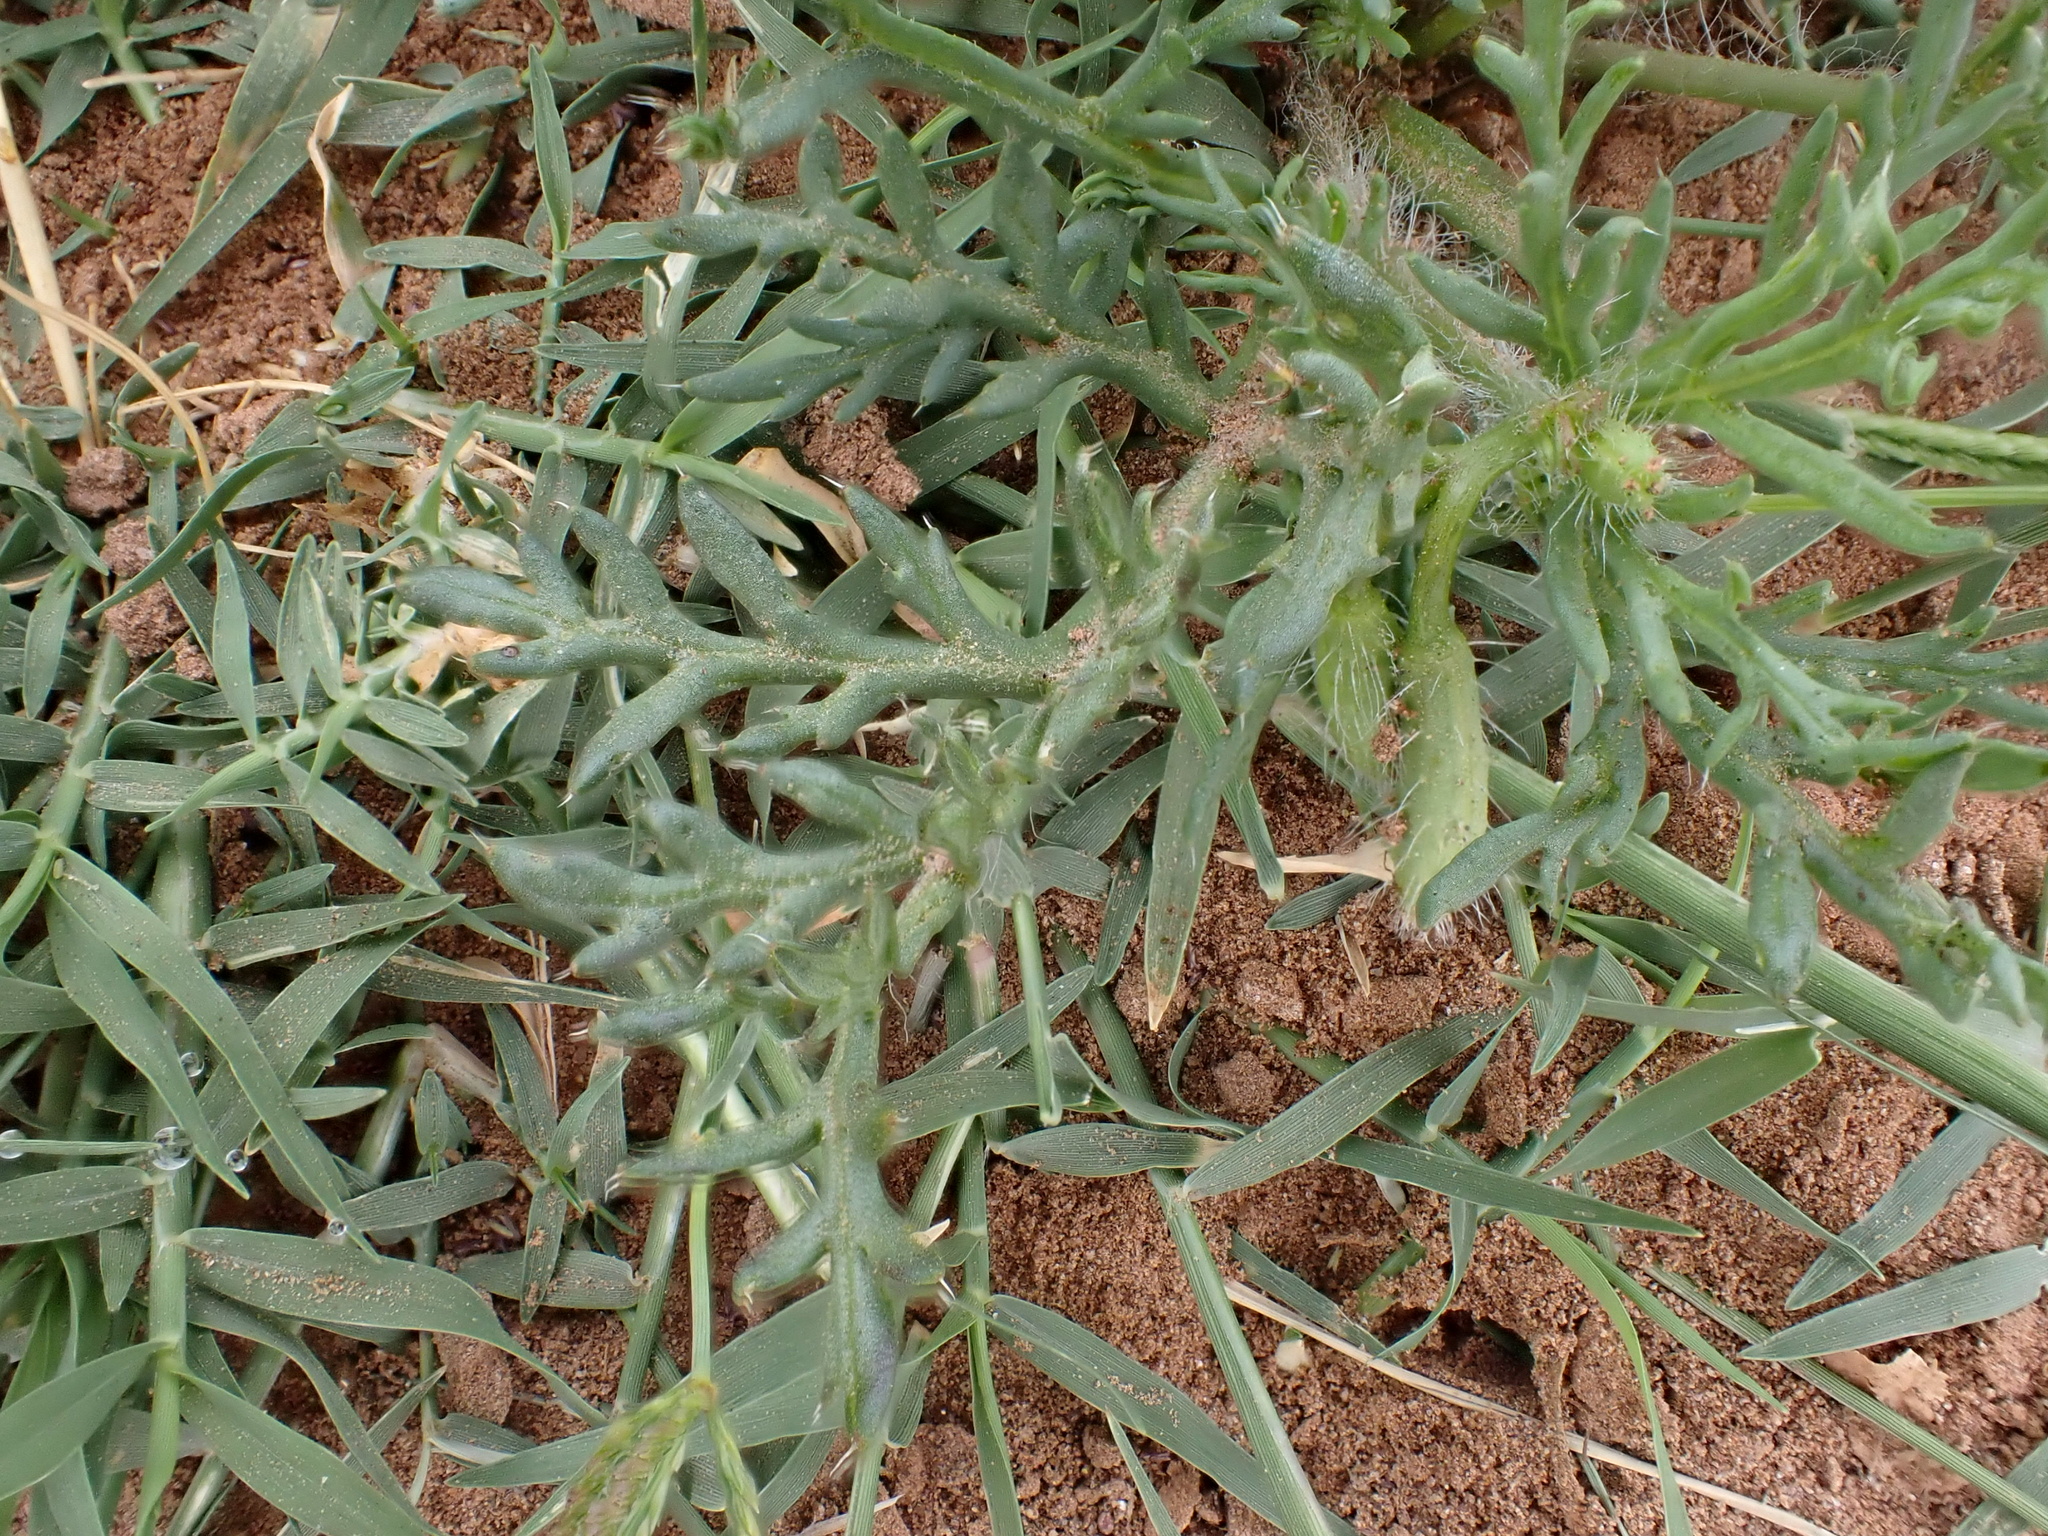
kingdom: Plantae
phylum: Tracheophyta
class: Magnoliopsida
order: Ranunculales
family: Papaveraceae
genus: Roemeria
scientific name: Roemeria hybrida
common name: Violet horned-poppy
